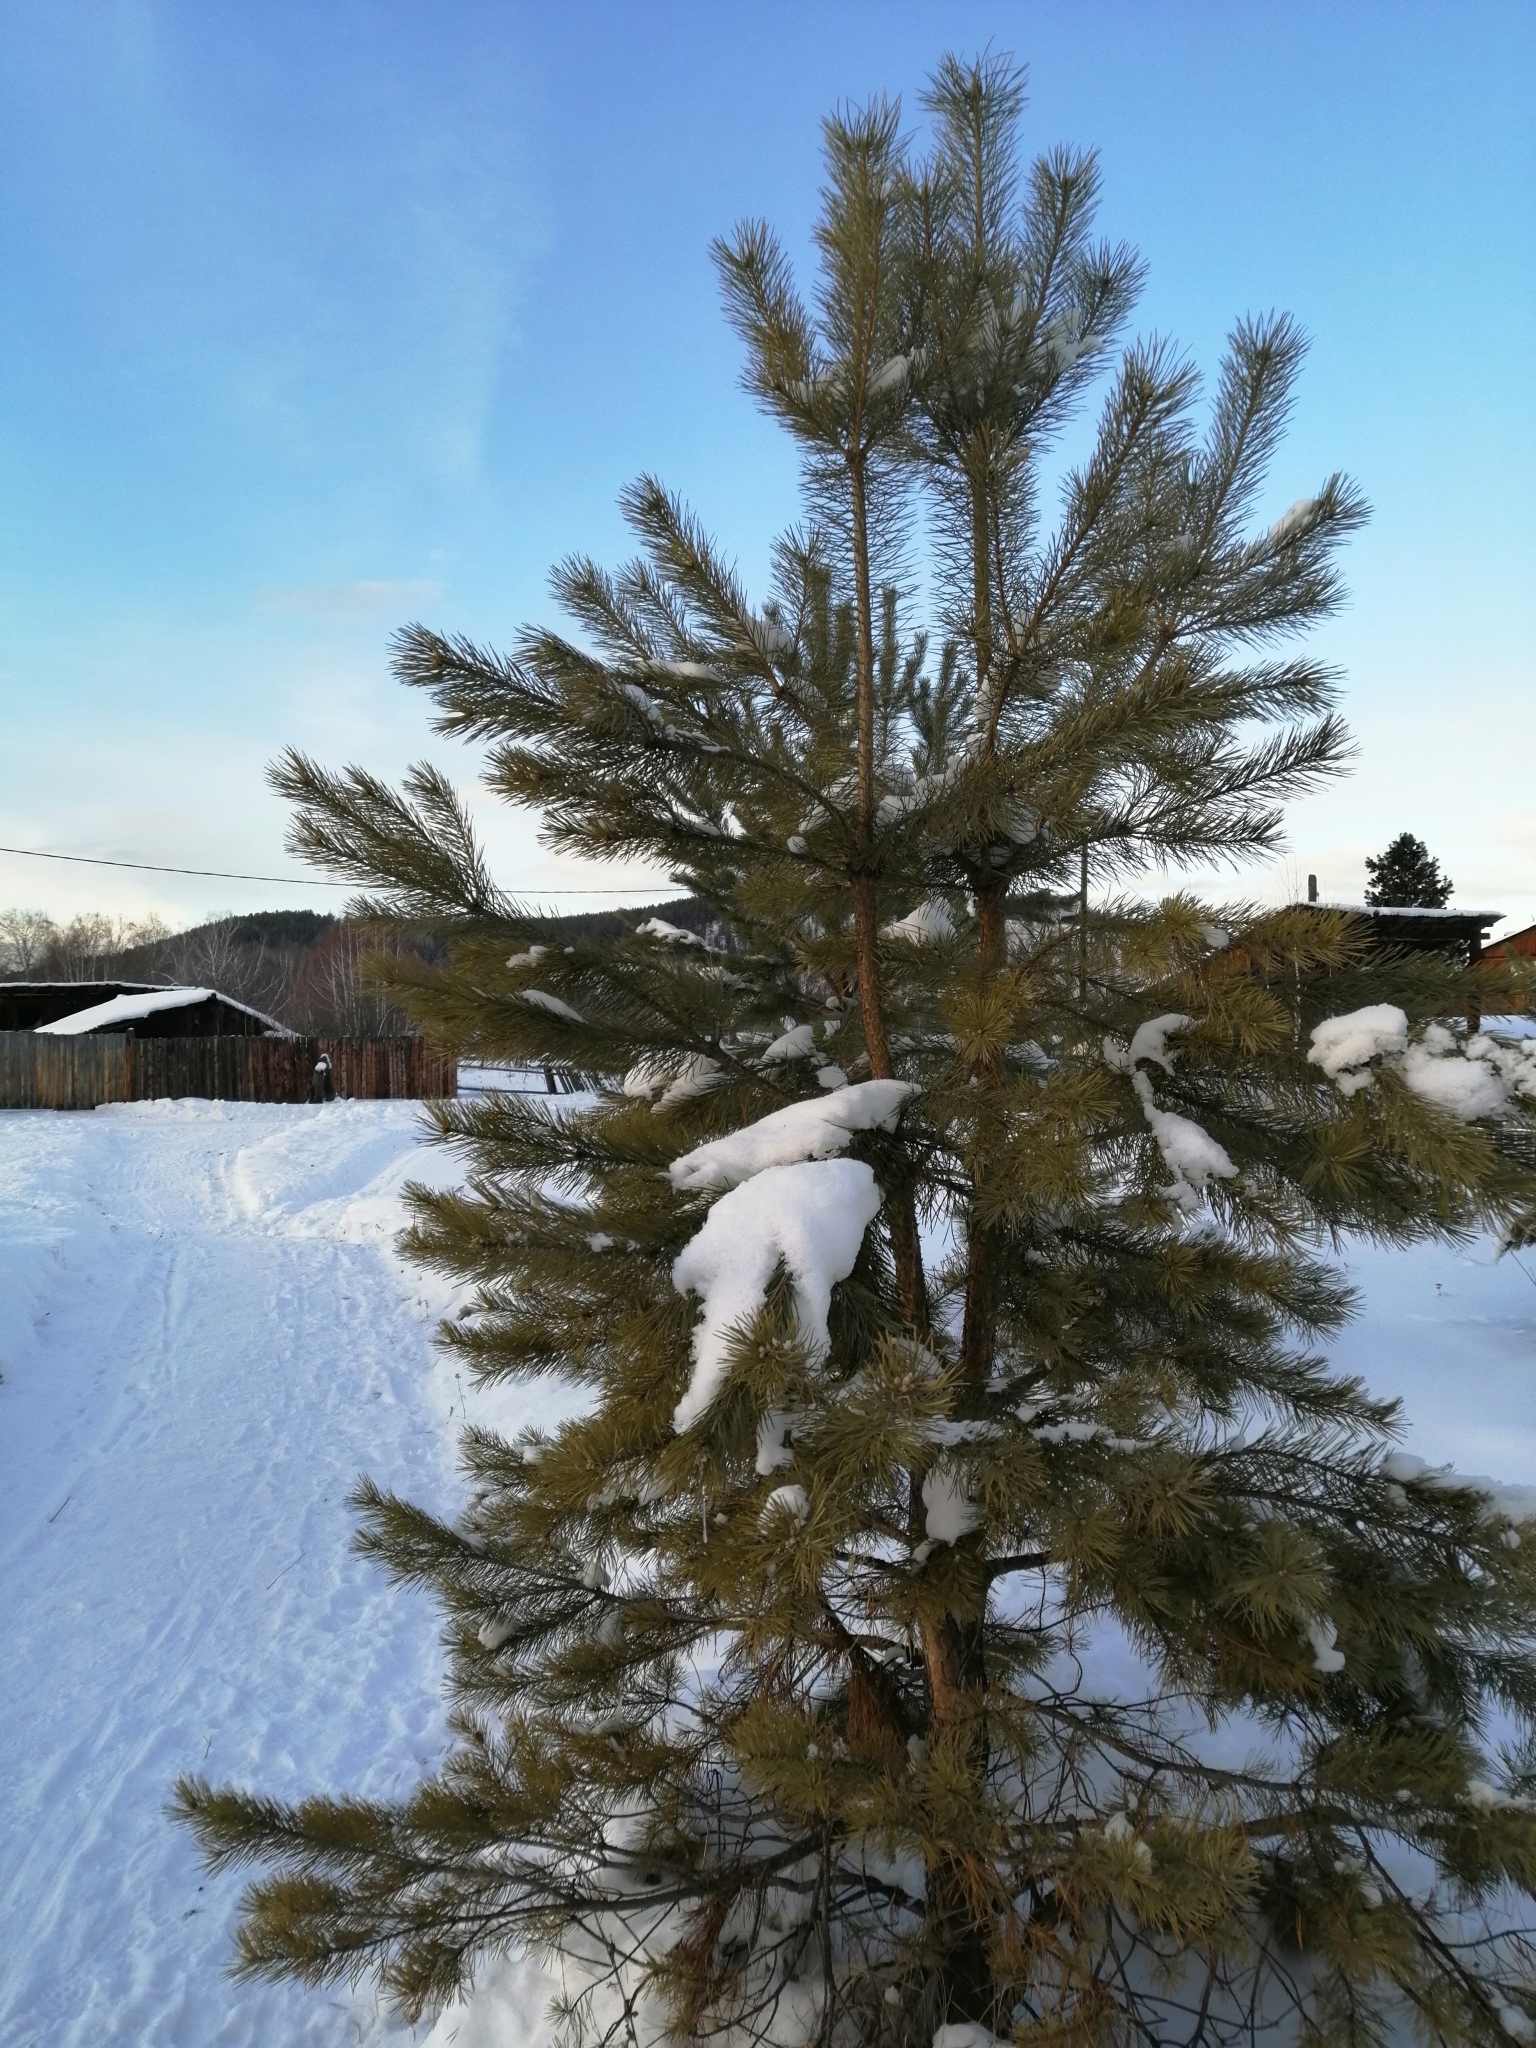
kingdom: Plantae
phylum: Tracheophyta
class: Pinopsida
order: Pinales
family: Pinaceae
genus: Pinus
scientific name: Pinus sylvestris
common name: Scots pine
